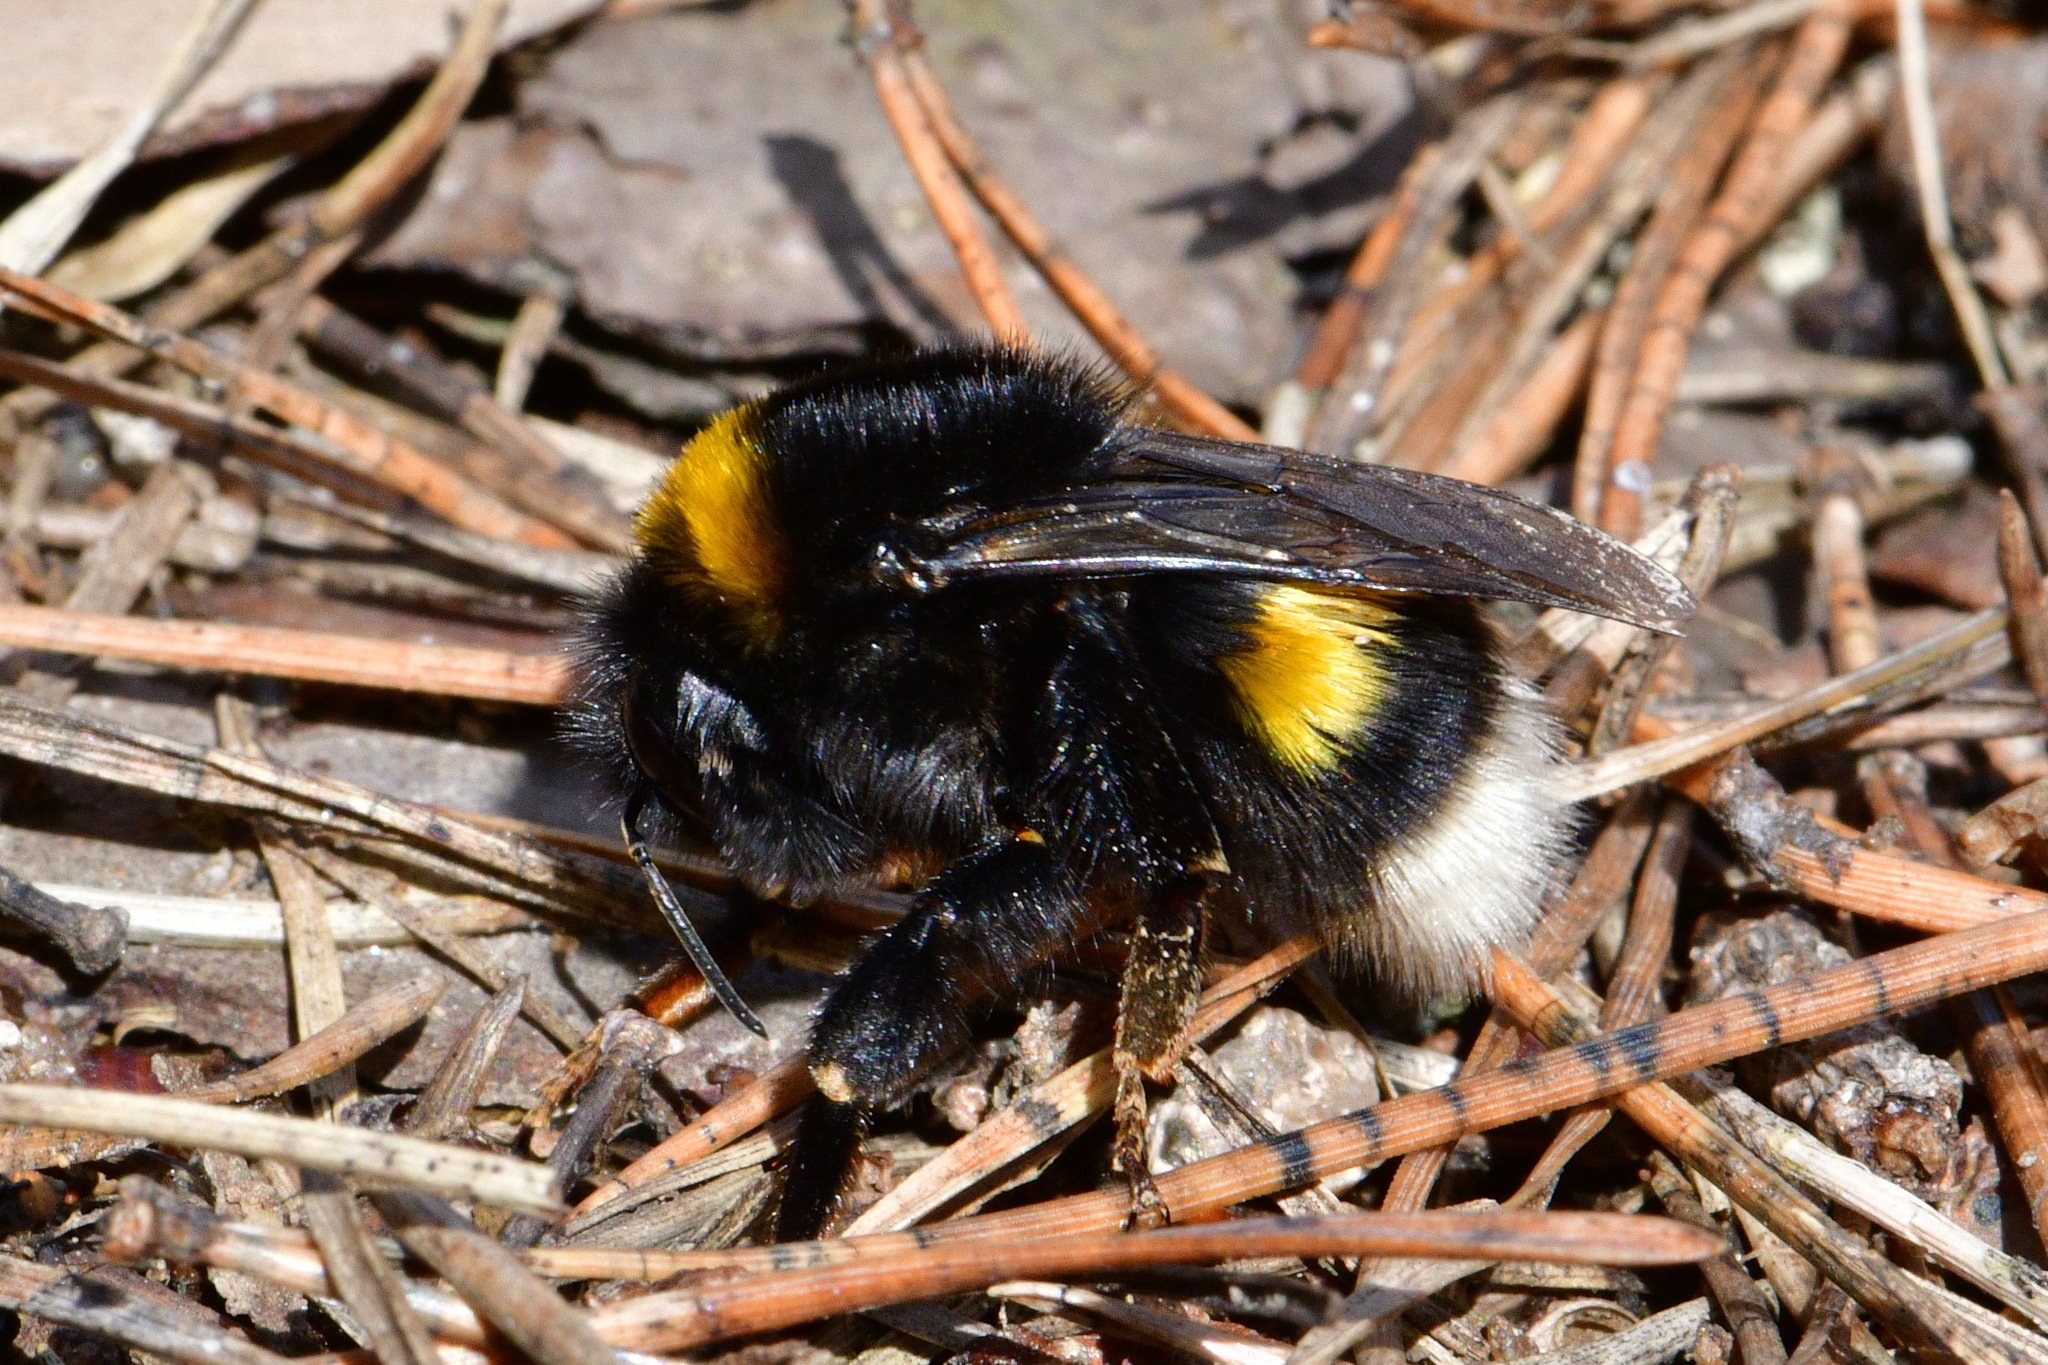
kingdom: Animalia
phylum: Arthropoda
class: Insecta
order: Hymenoptera
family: Apidae
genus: Bombus
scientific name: Bombus
